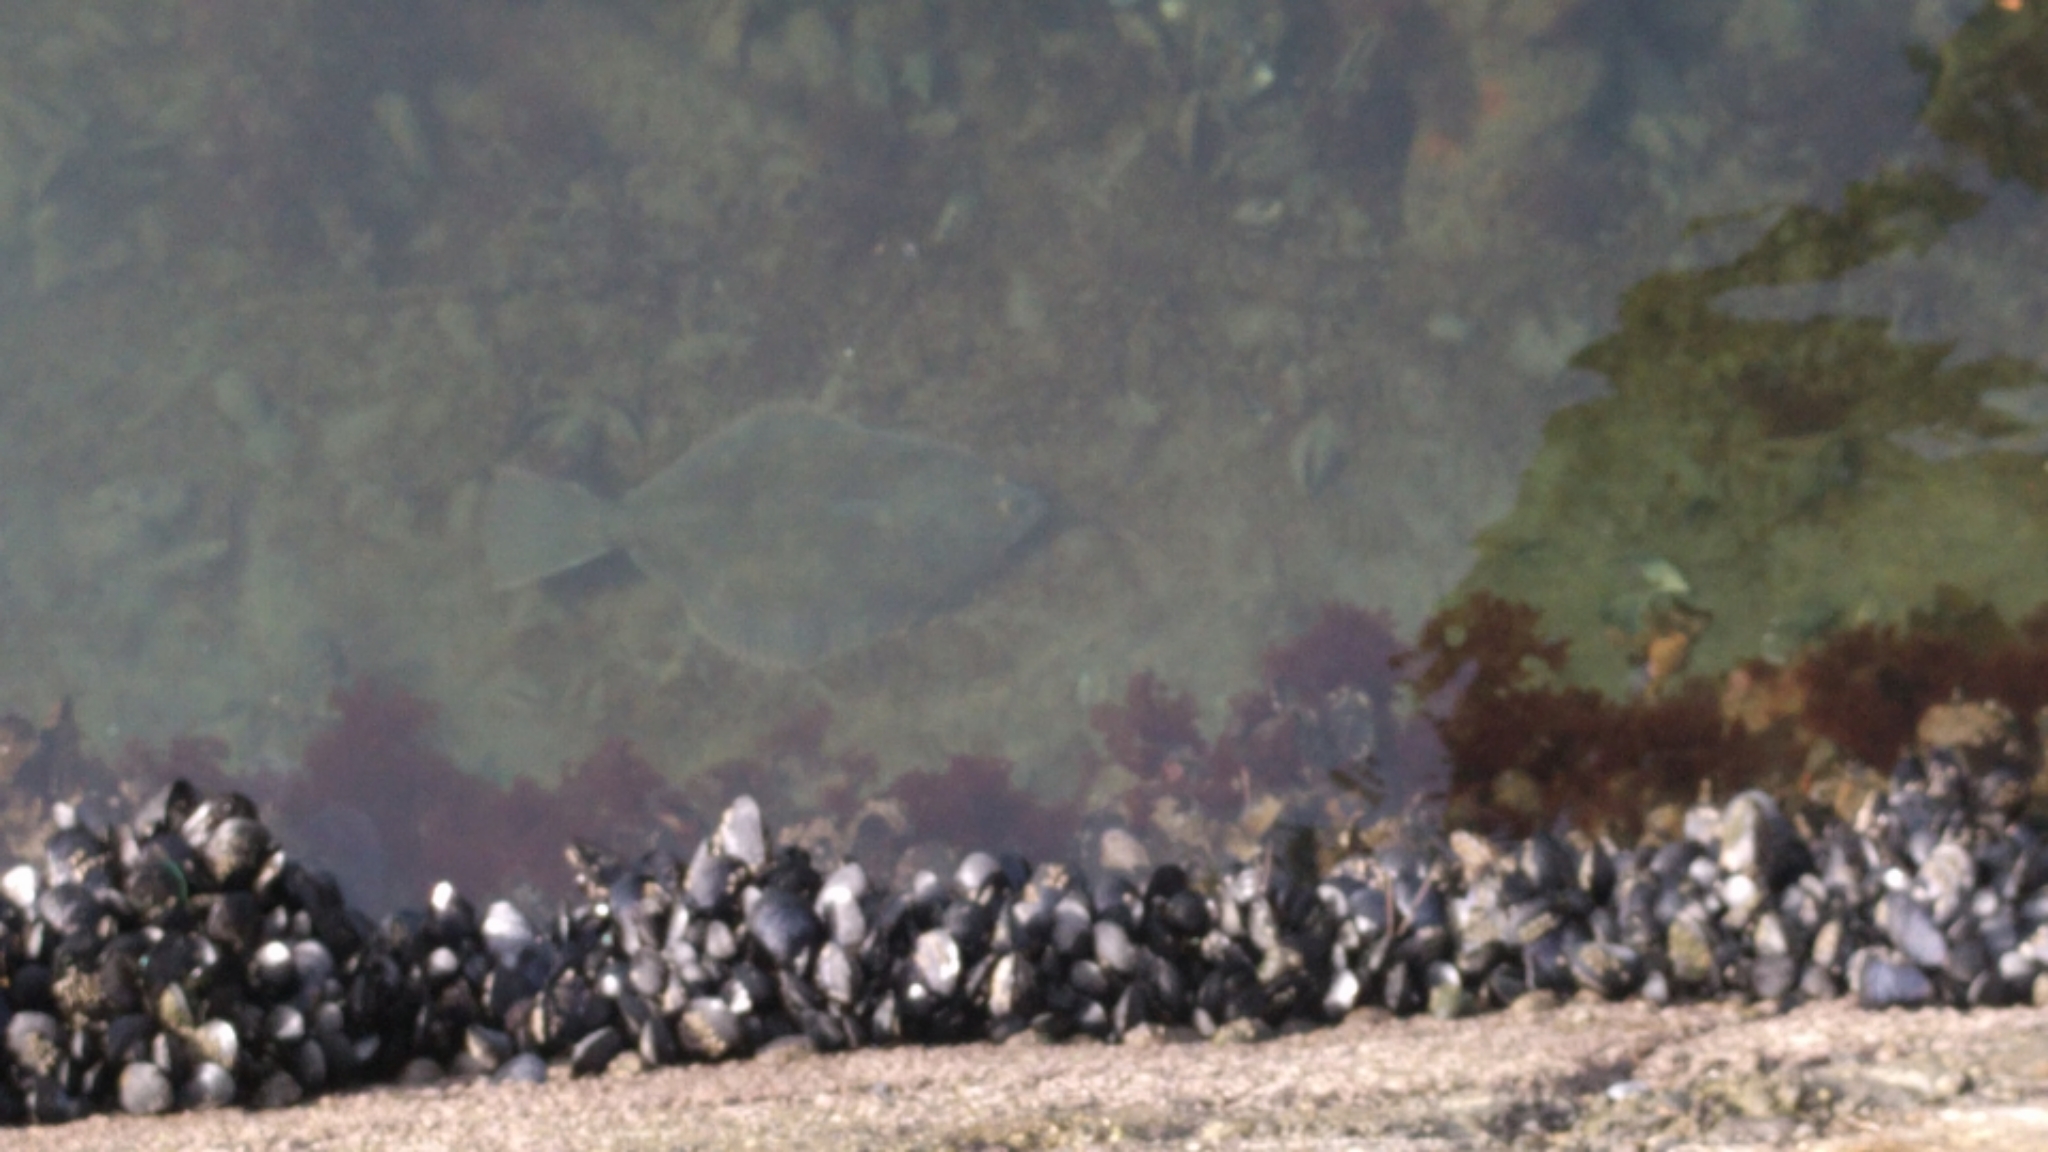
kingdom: Animalia
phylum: Chordata
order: Pleuronectiformes
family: Pleuronectidae
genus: Rhombosolea
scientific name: Rhombosolea
